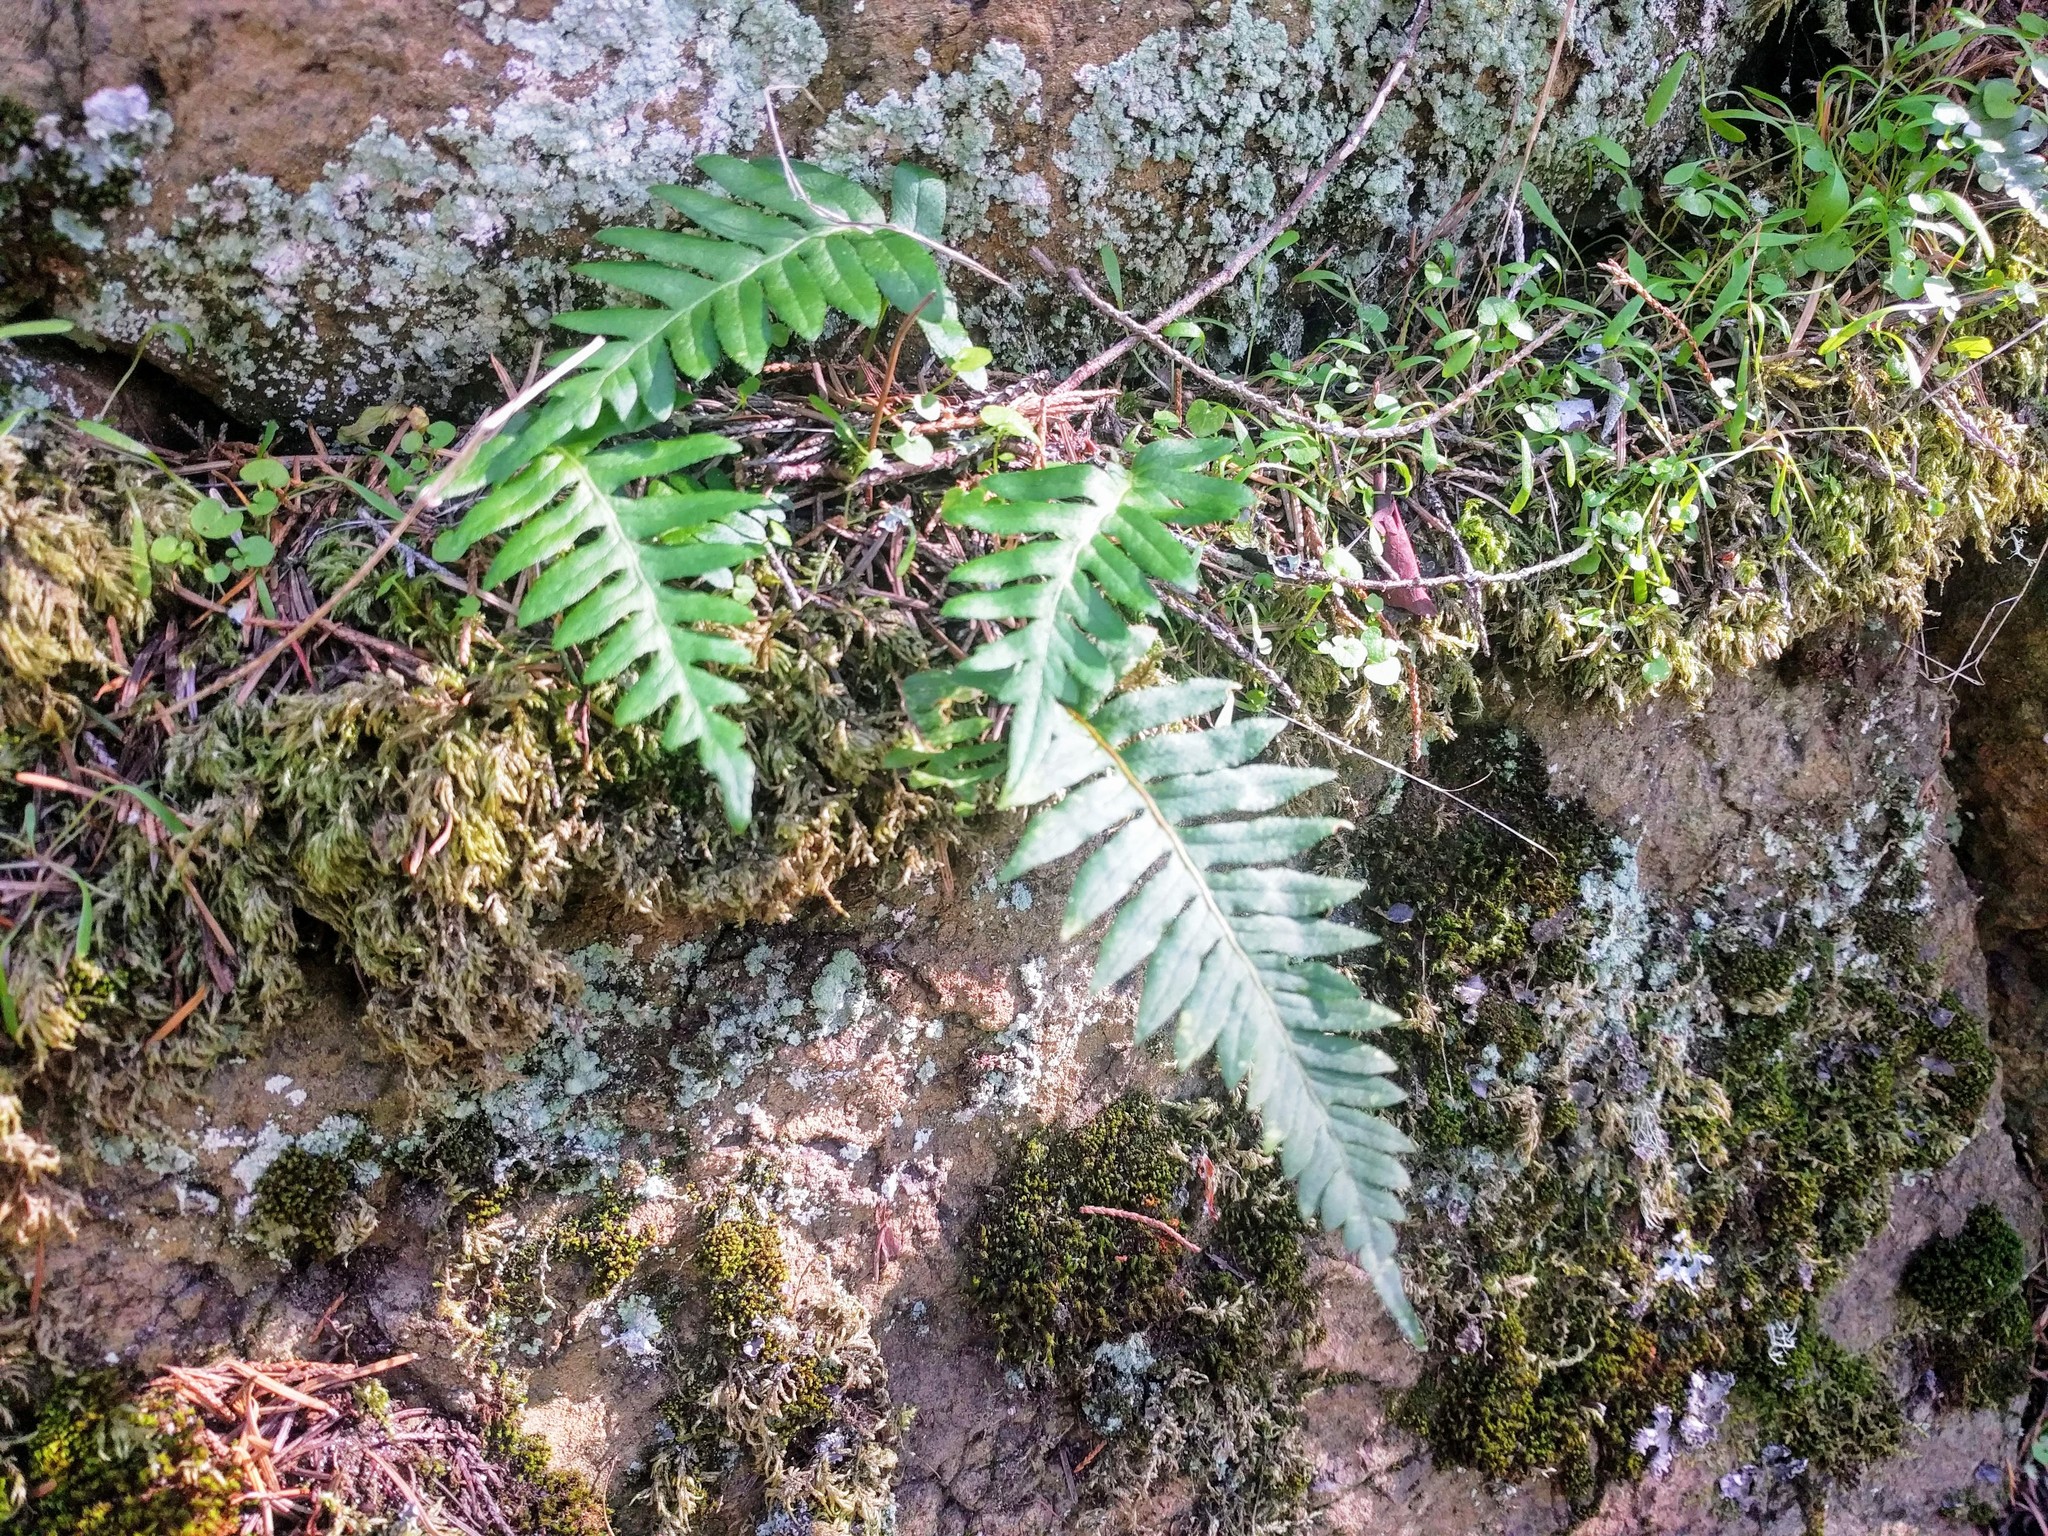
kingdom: Plantae
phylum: Tracheophyta
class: Polypodiopsida
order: Polypodiales
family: Polypodiaceae
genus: Polypodium
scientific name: Polypodium glycyrrhiza
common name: Licorice fern
